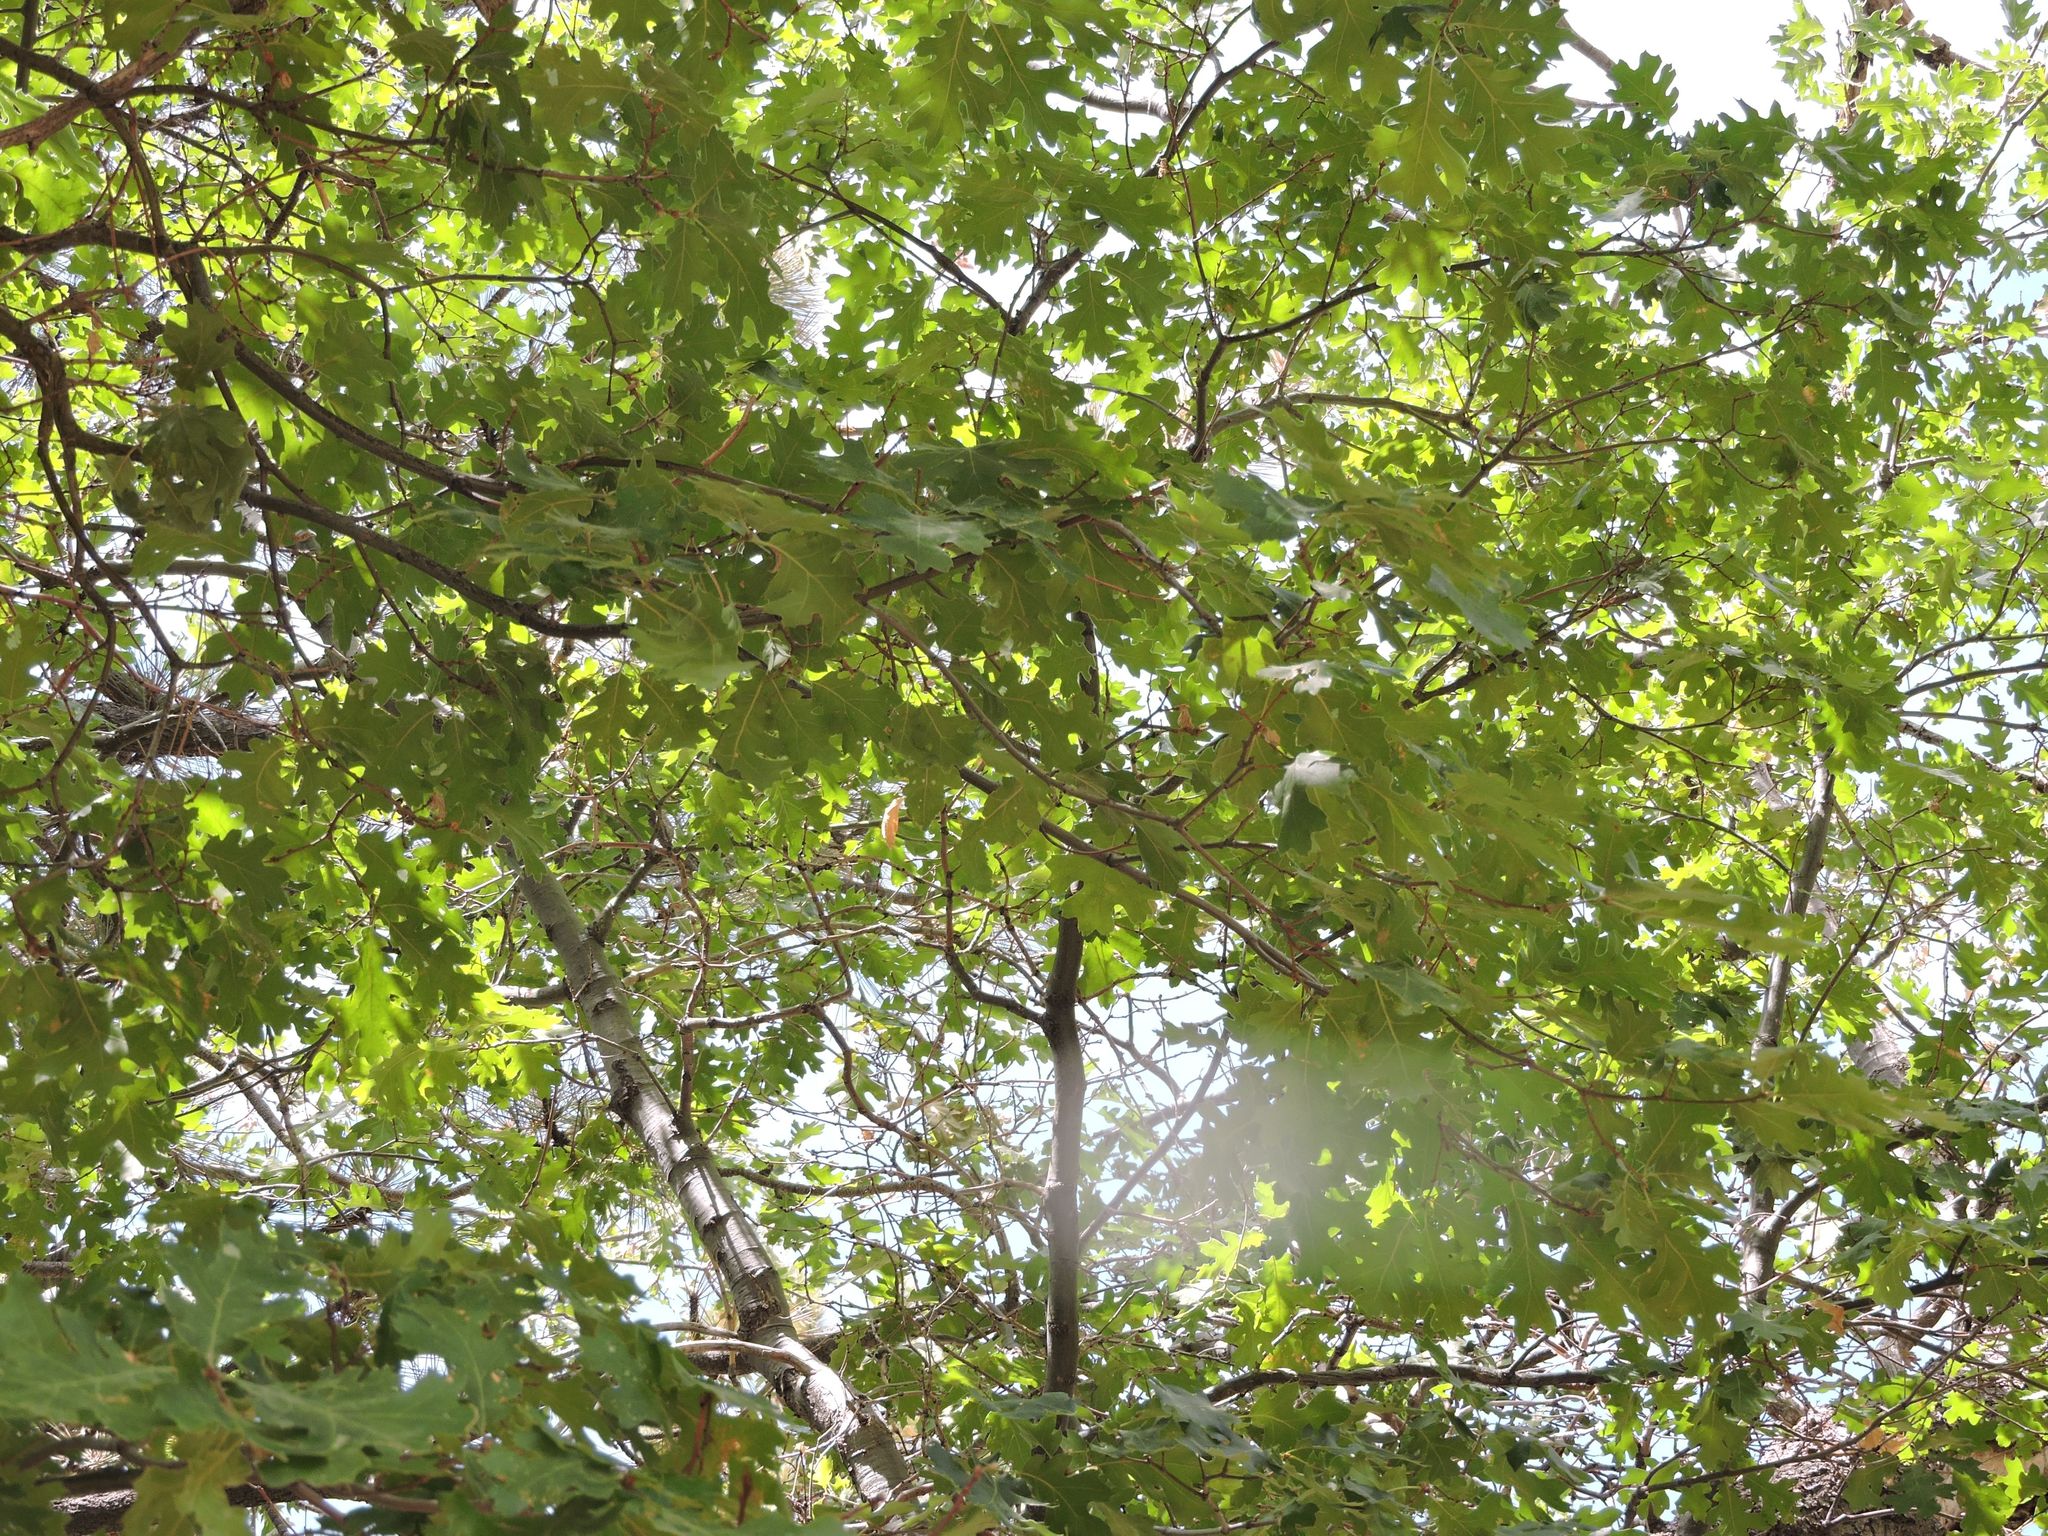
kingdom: Plantae
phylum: Tracheophyta
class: Magnoliopsida
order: Fagales
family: Fagaceae
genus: Quercus
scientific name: Quercus kelloggii
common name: California black oak
